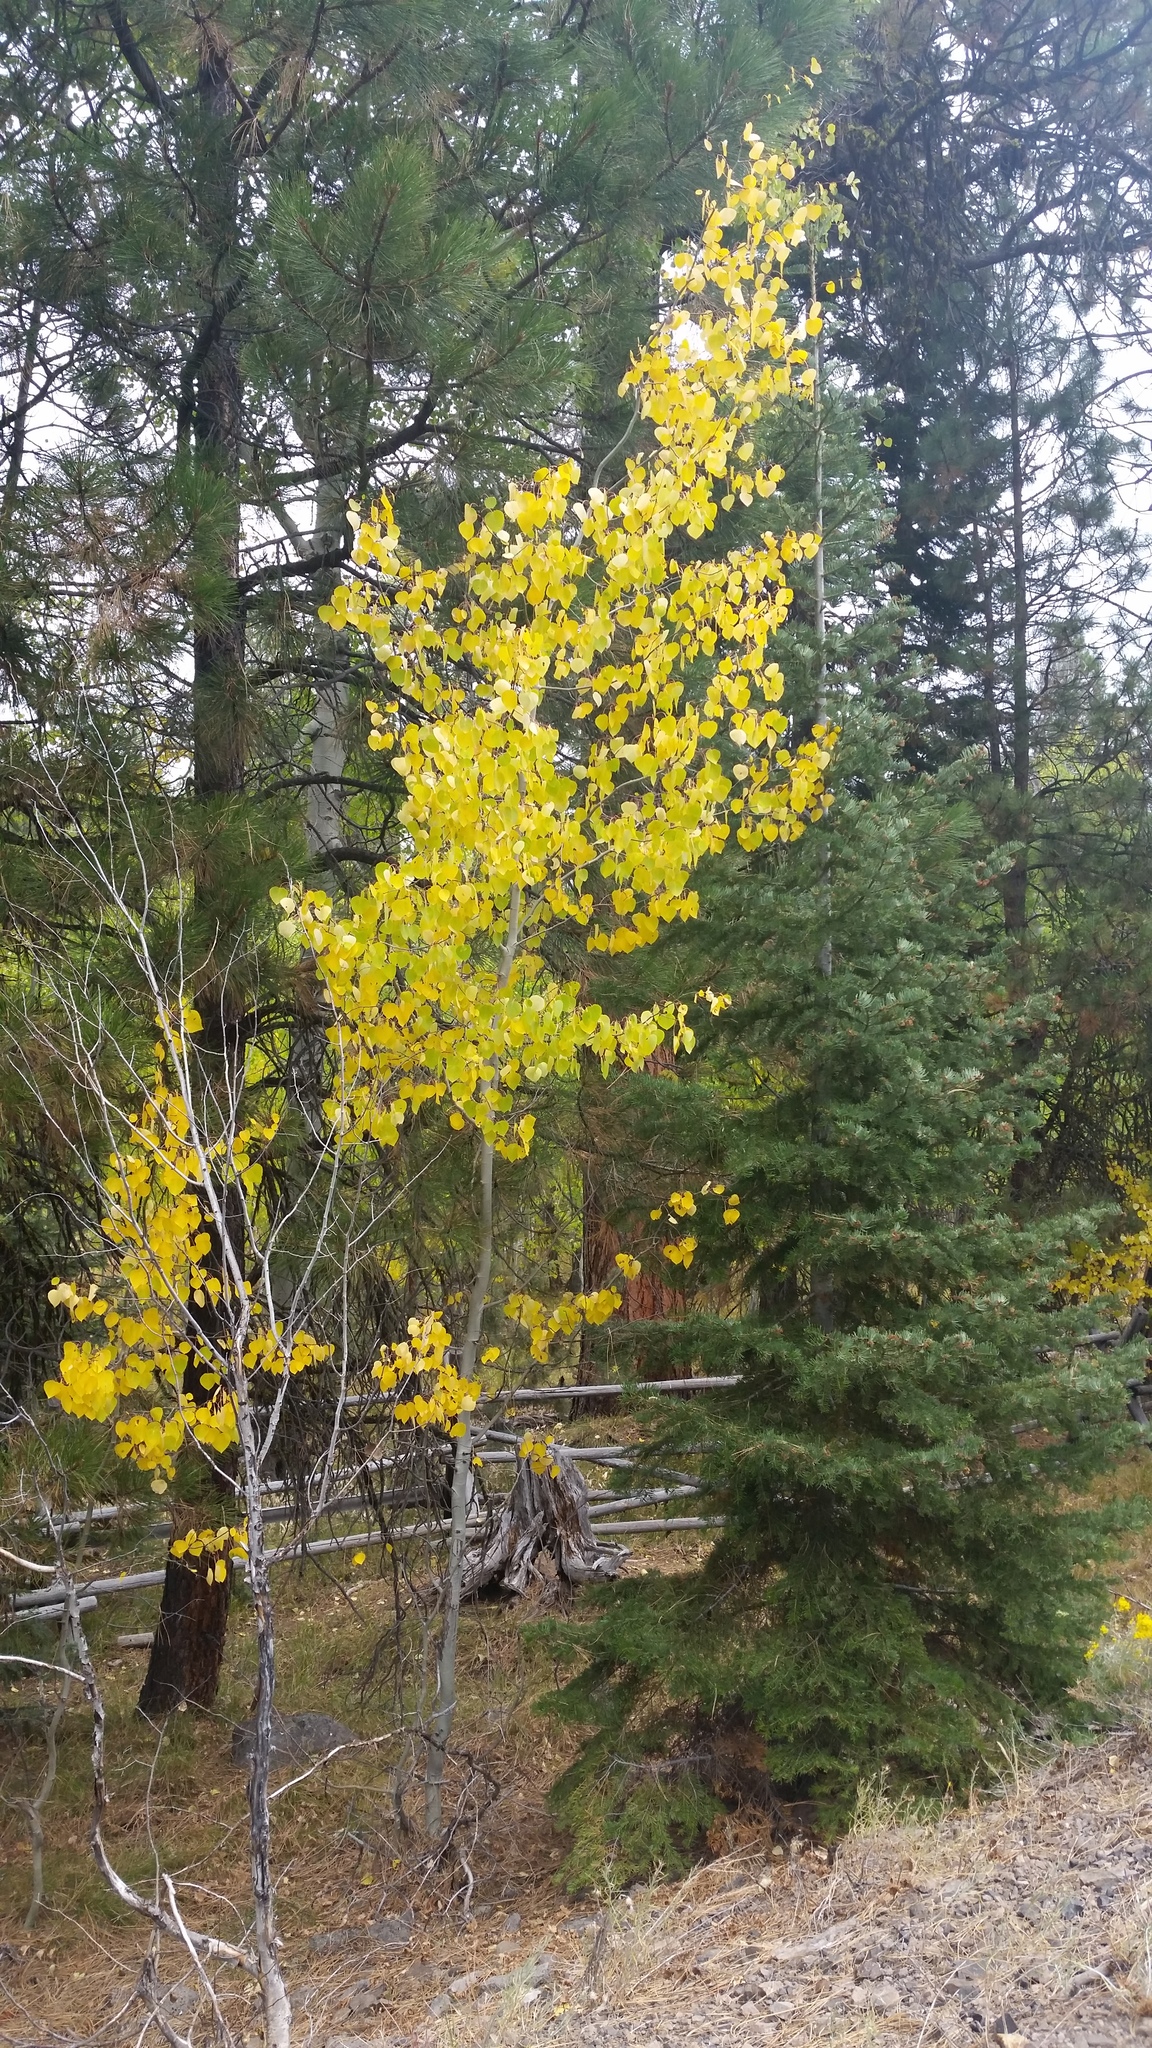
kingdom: Plantae
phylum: Tracheophyta
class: Magnoliopsida
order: Malpighiales
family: Salicaceae
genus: Populus
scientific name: Populus tremuloides
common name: Quaking aspen
